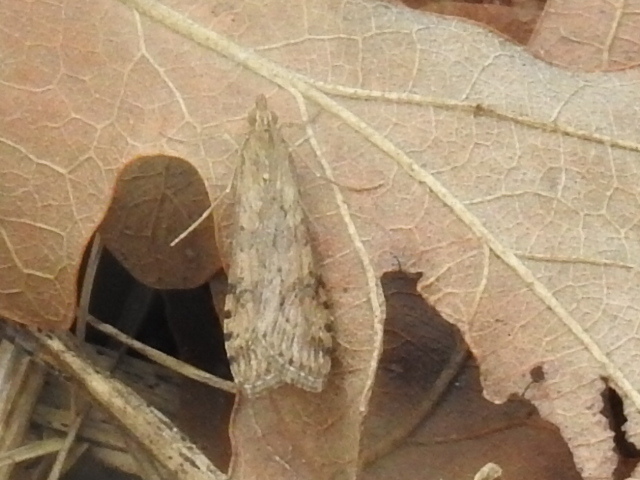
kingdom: Animalia
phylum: Arthropoda
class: Insecta
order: Lepidoptera
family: Crambidae
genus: Nomophila
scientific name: Nomophila nearctica
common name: American rush veneer
